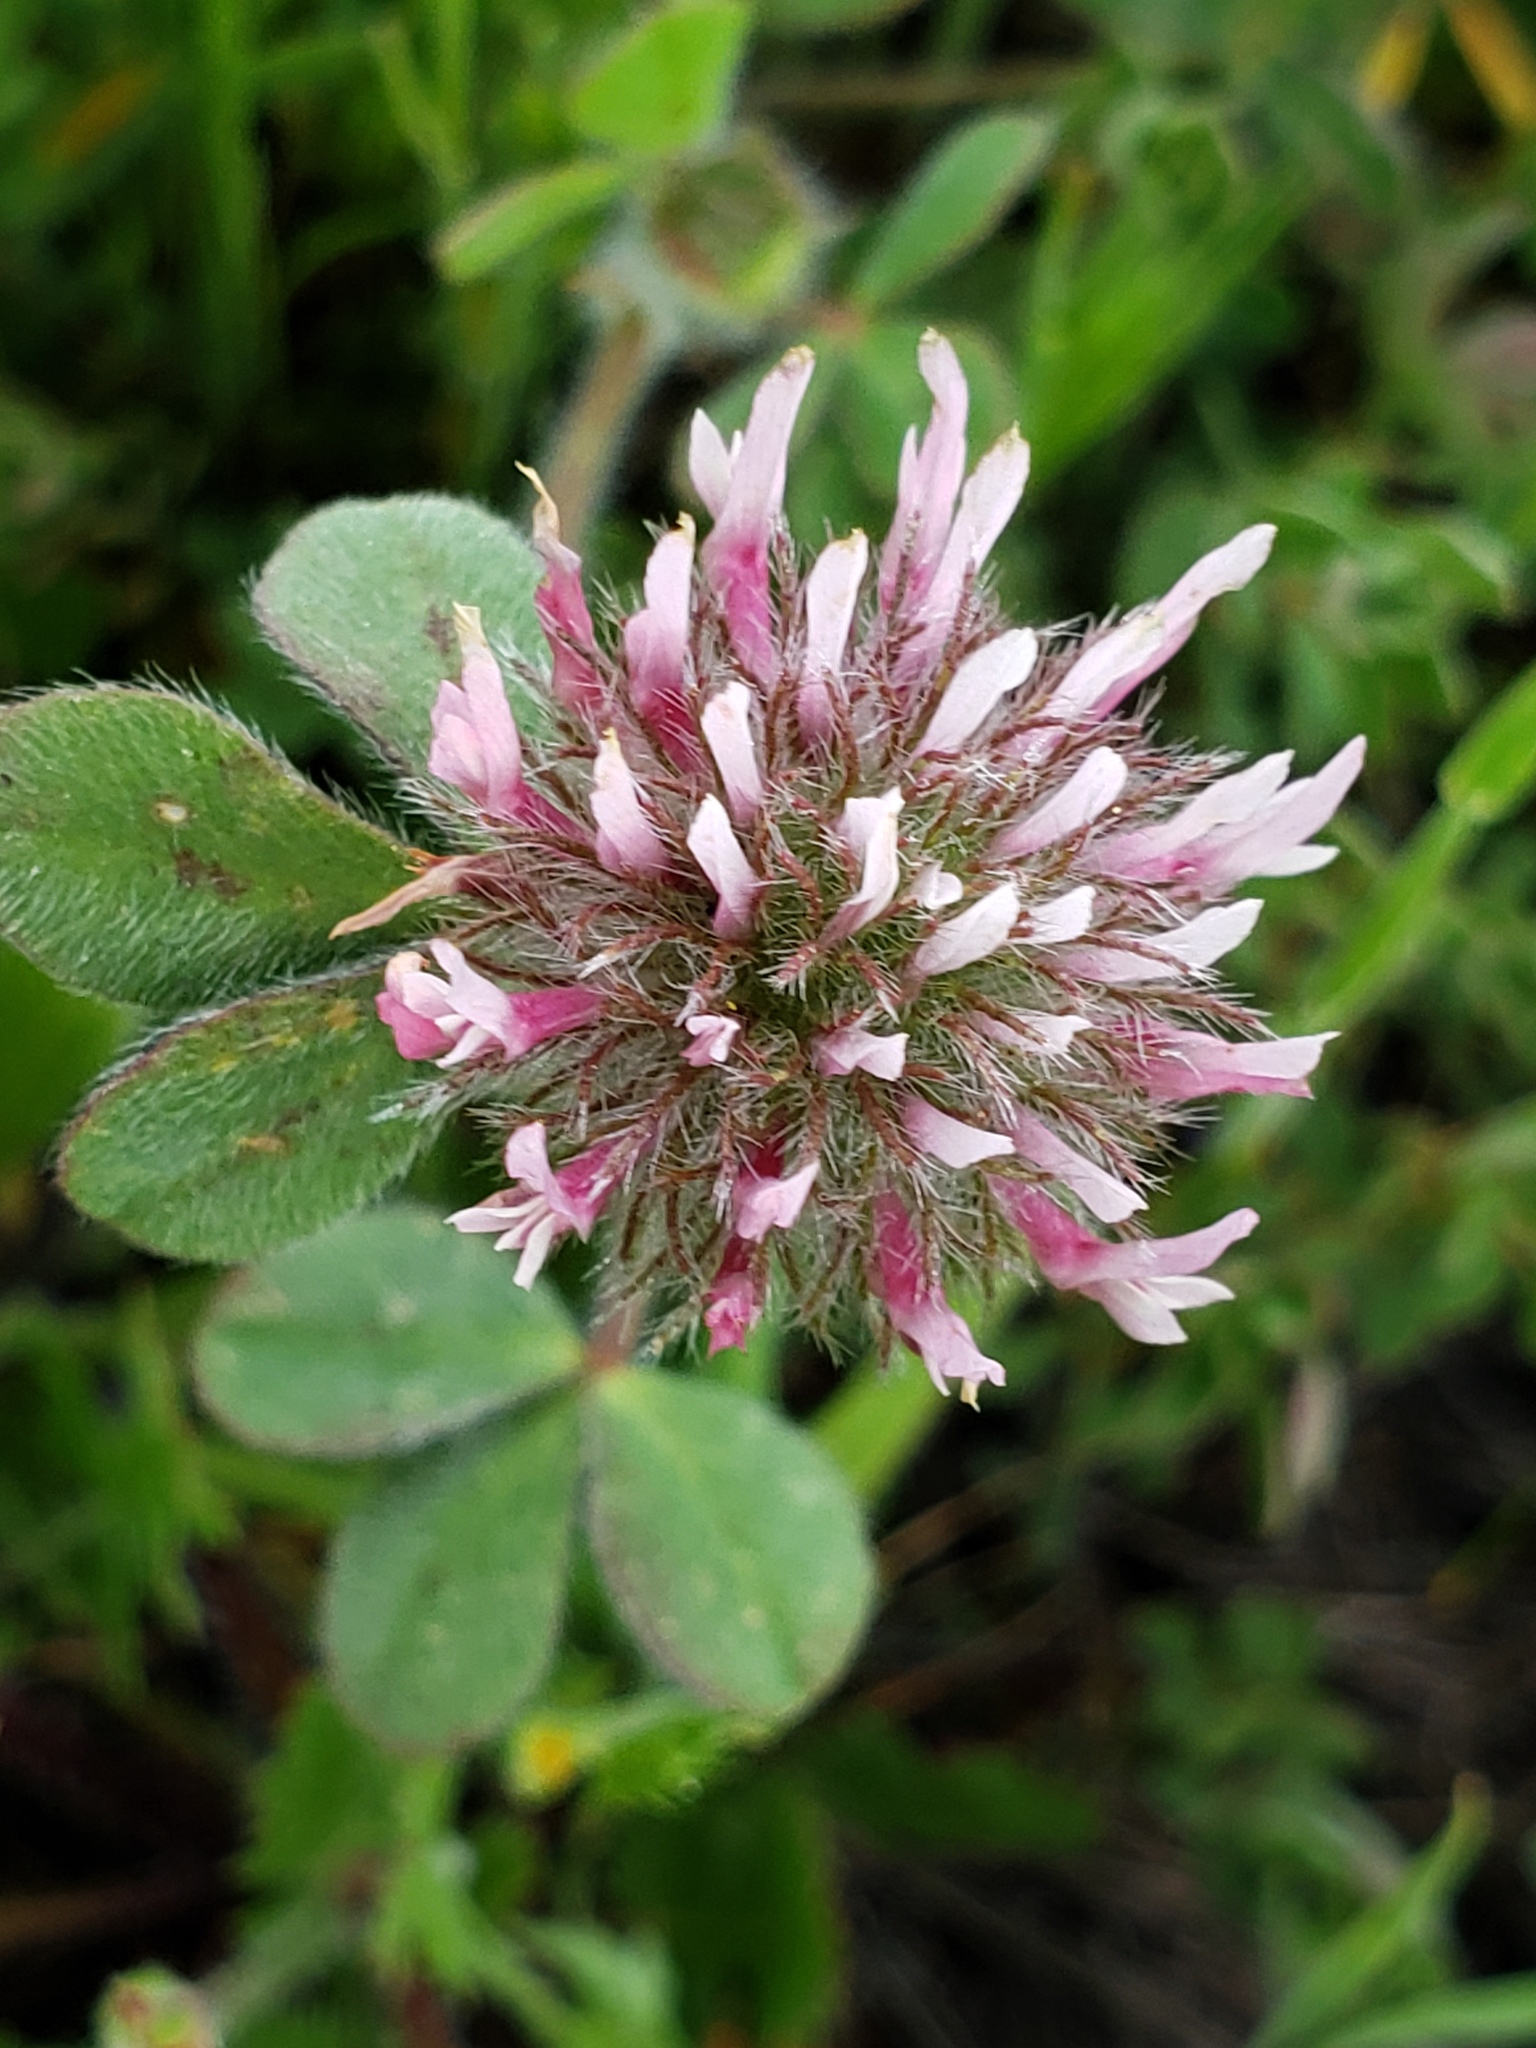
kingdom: Plantae
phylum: Tracheophyta
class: Magnoliopsida
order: Fabales
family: Fabaceae
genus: Trifolium
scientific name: Trifolium hirtum
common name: Rose clover
